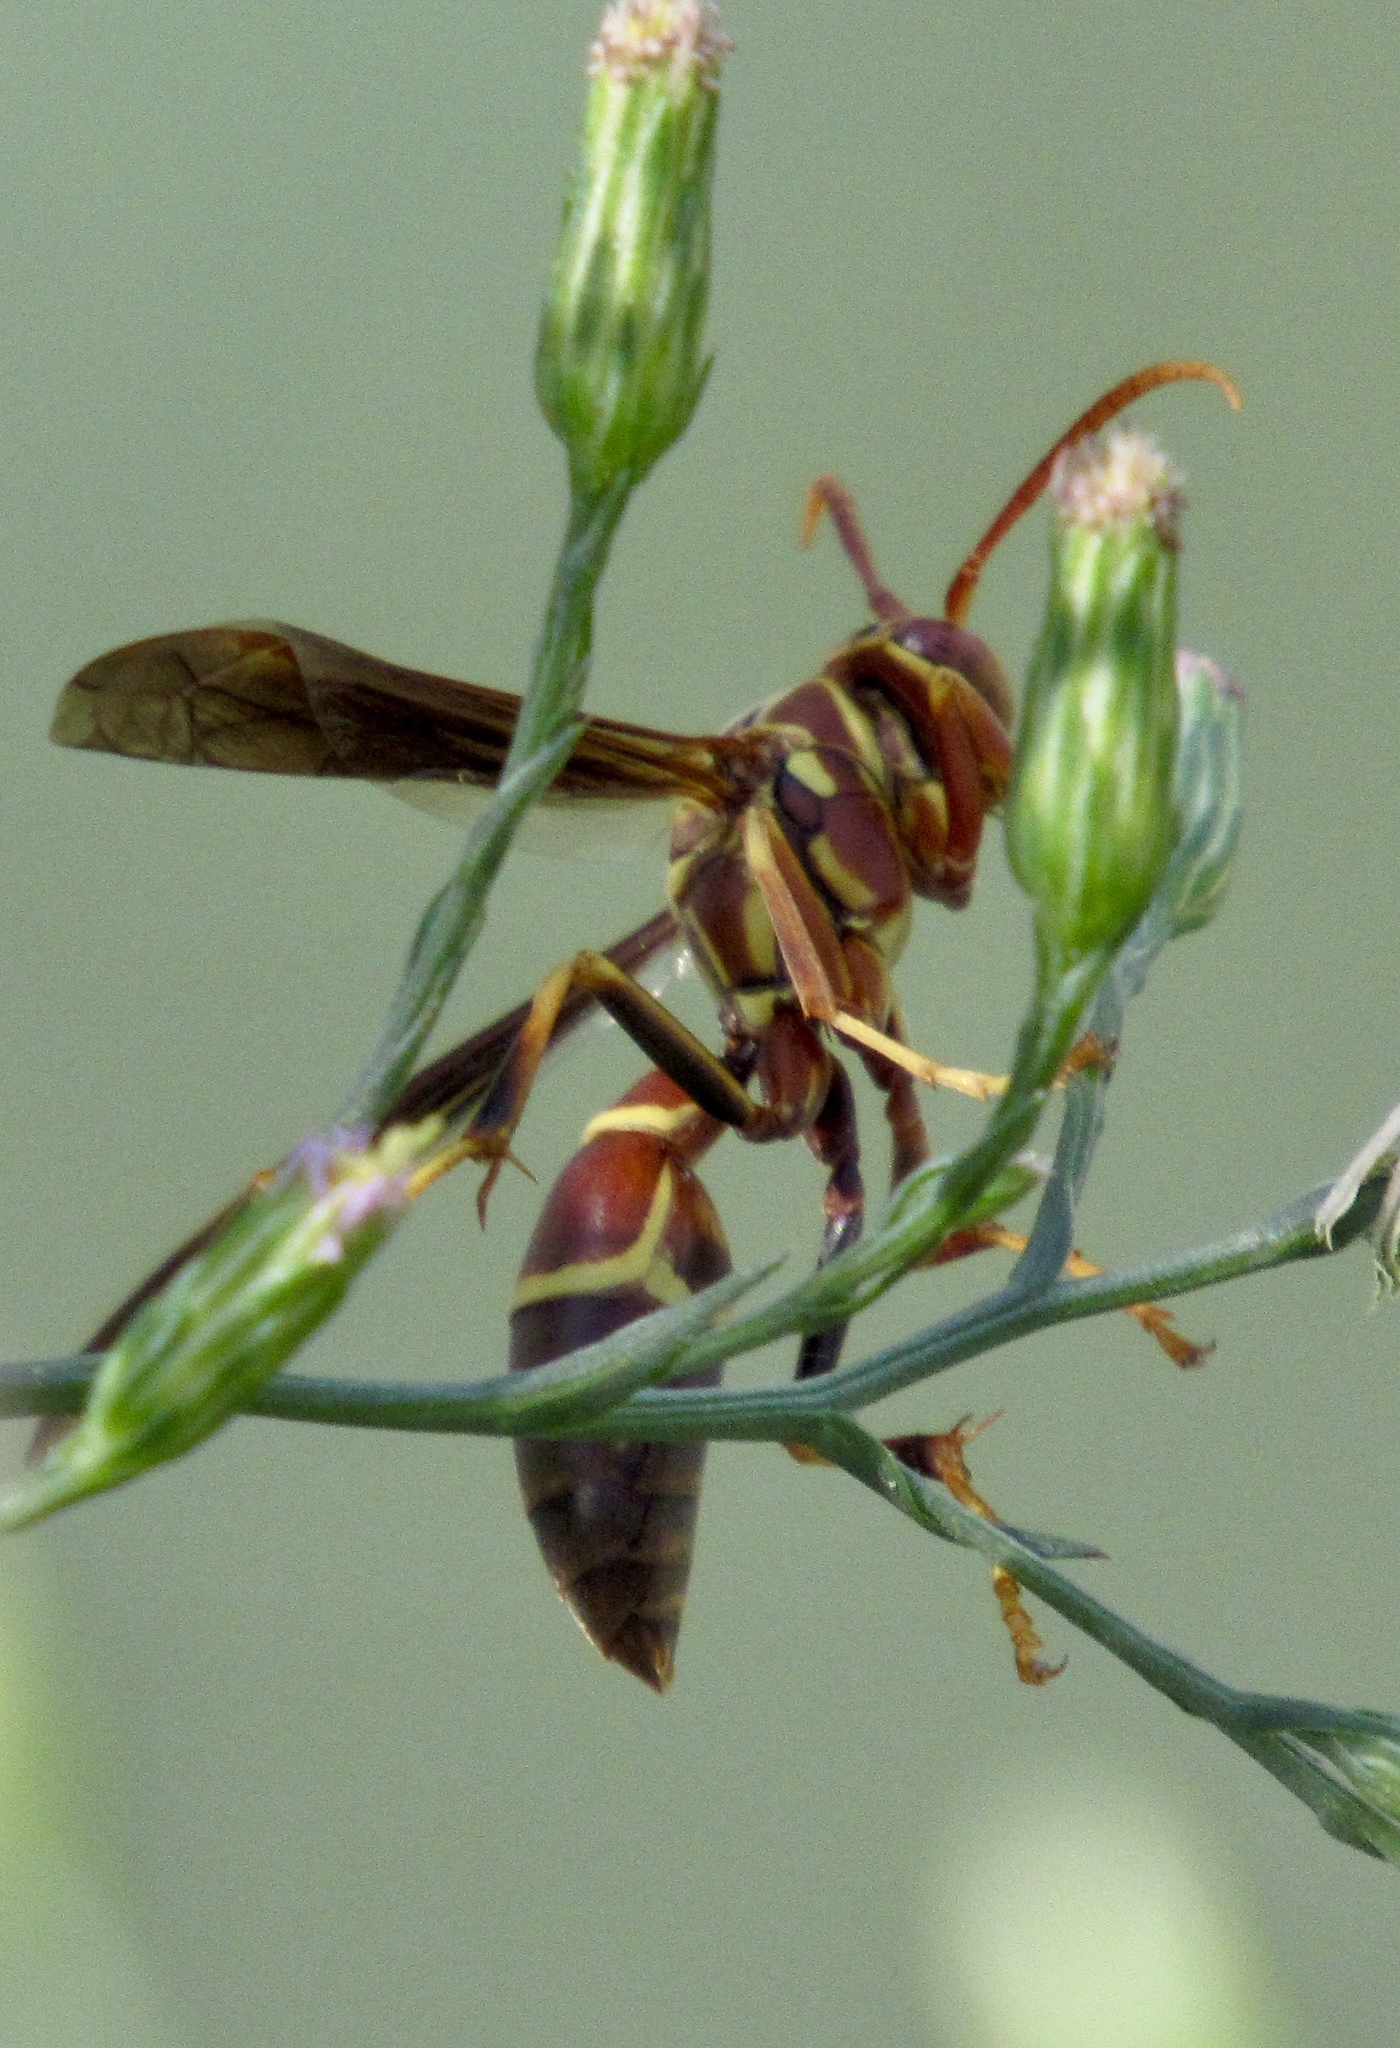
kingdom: Animalia
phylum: Arthropoda
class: Insecta
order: Hymenoptera
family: Eumenidae
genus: Polistes
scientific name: Polistes arizonensis
